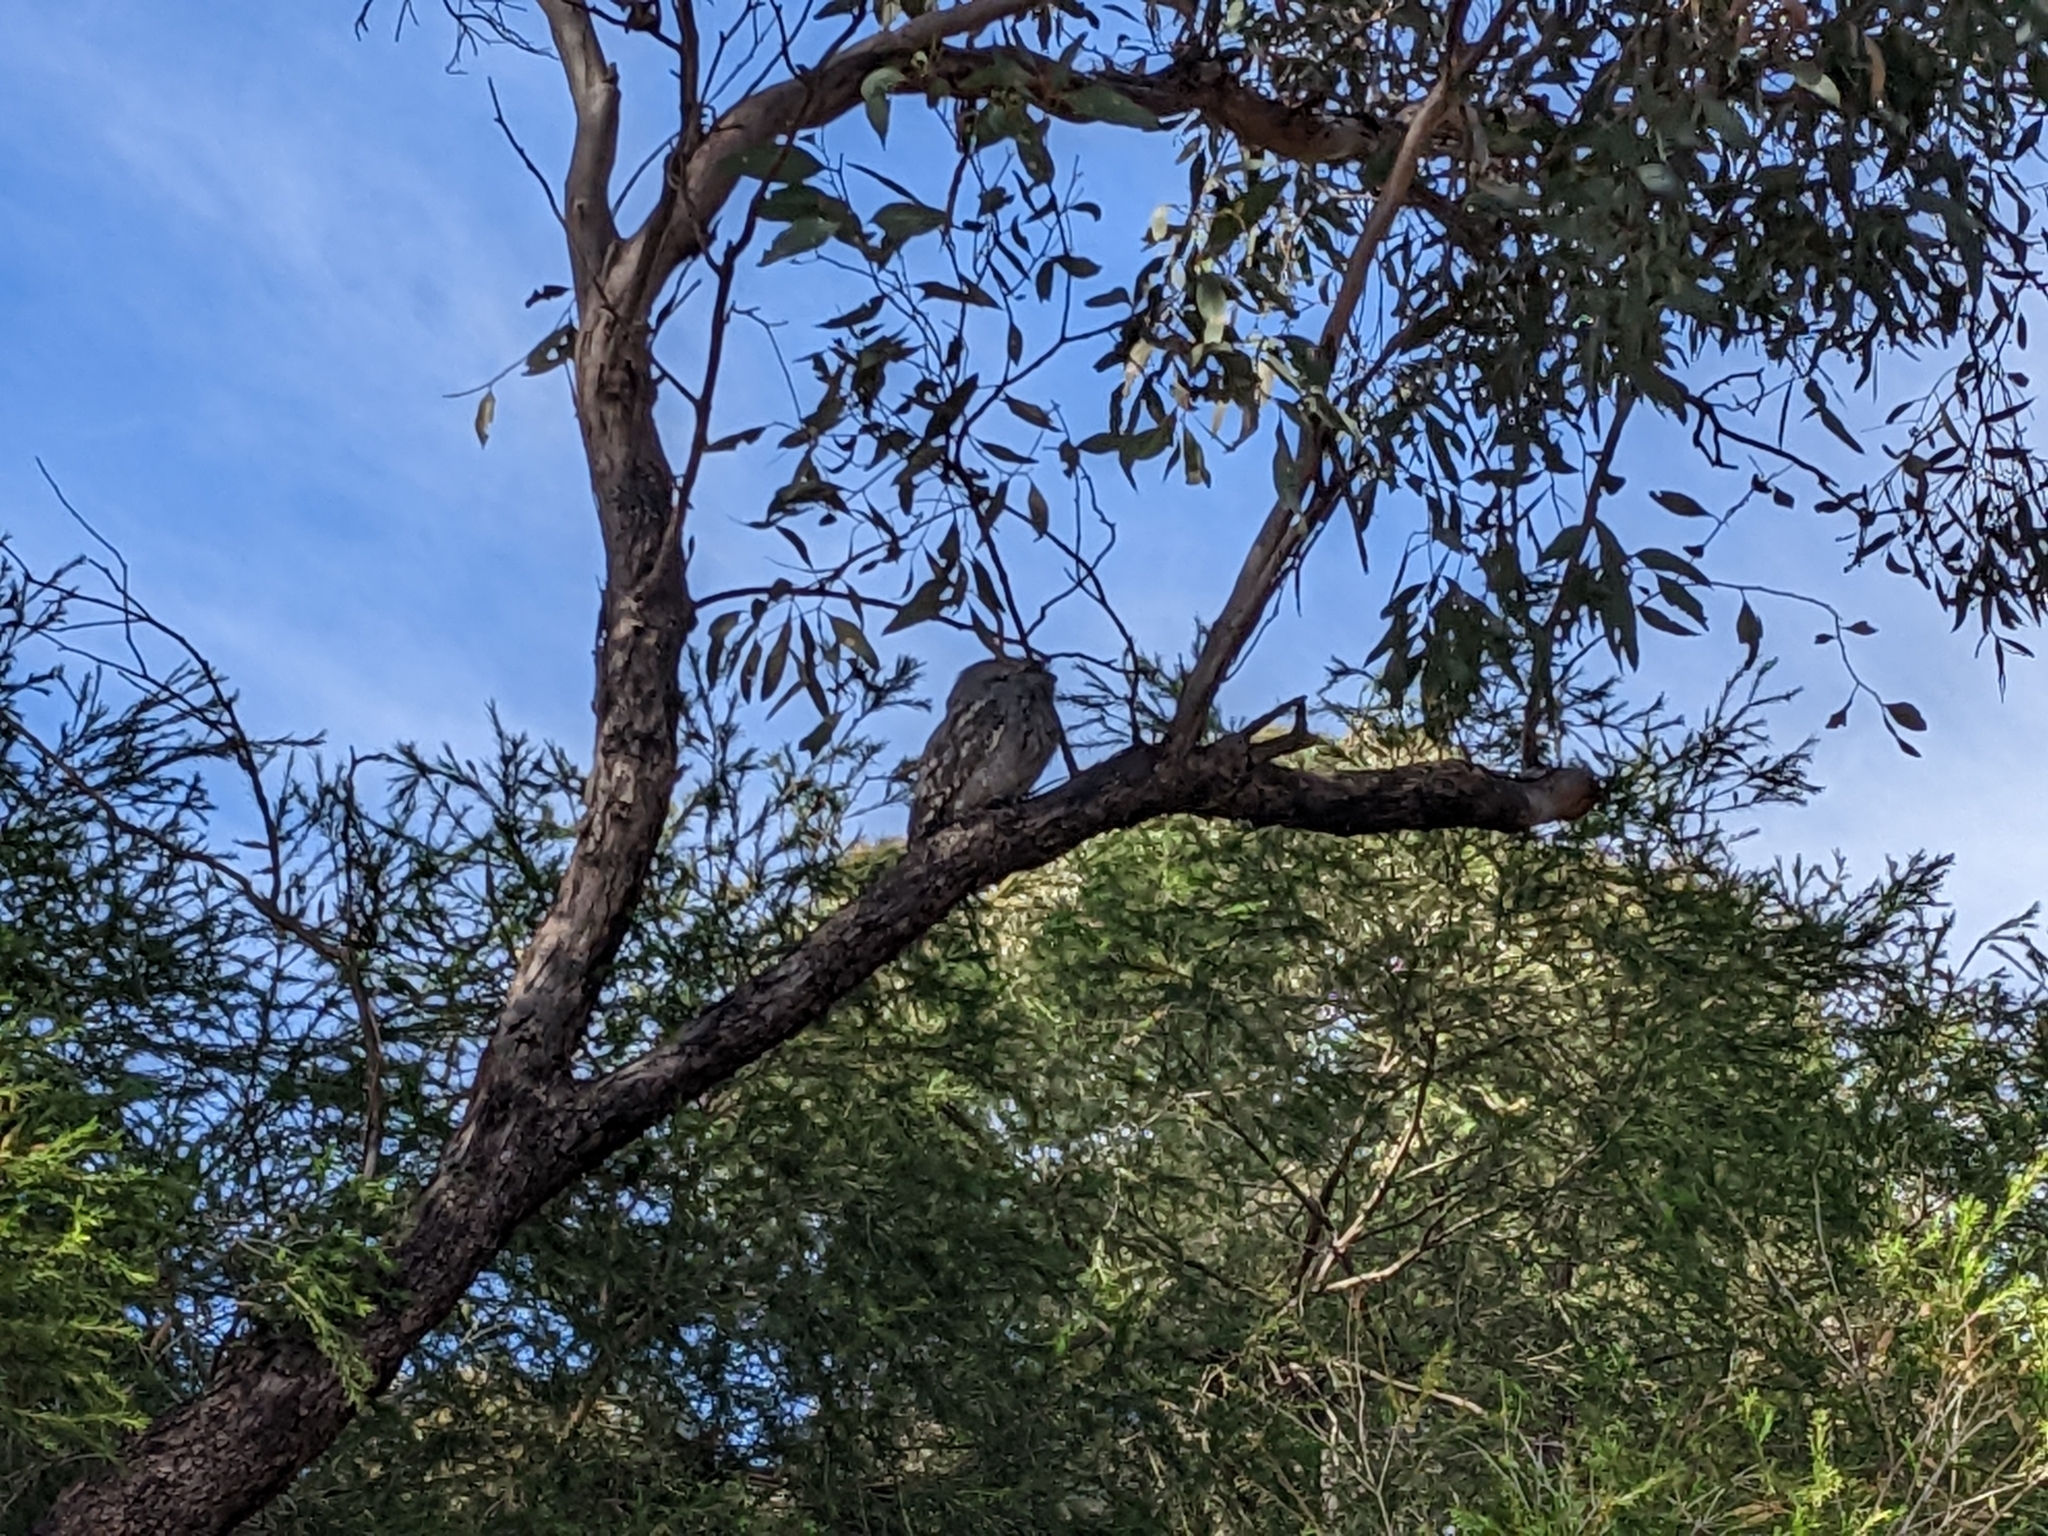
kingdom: Animalia
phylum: Chordata
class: Aves
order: Caprimulgiformes
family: Podargidae
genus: Podargus
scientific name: Podargus strigoides
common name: Tawny frogmouth
